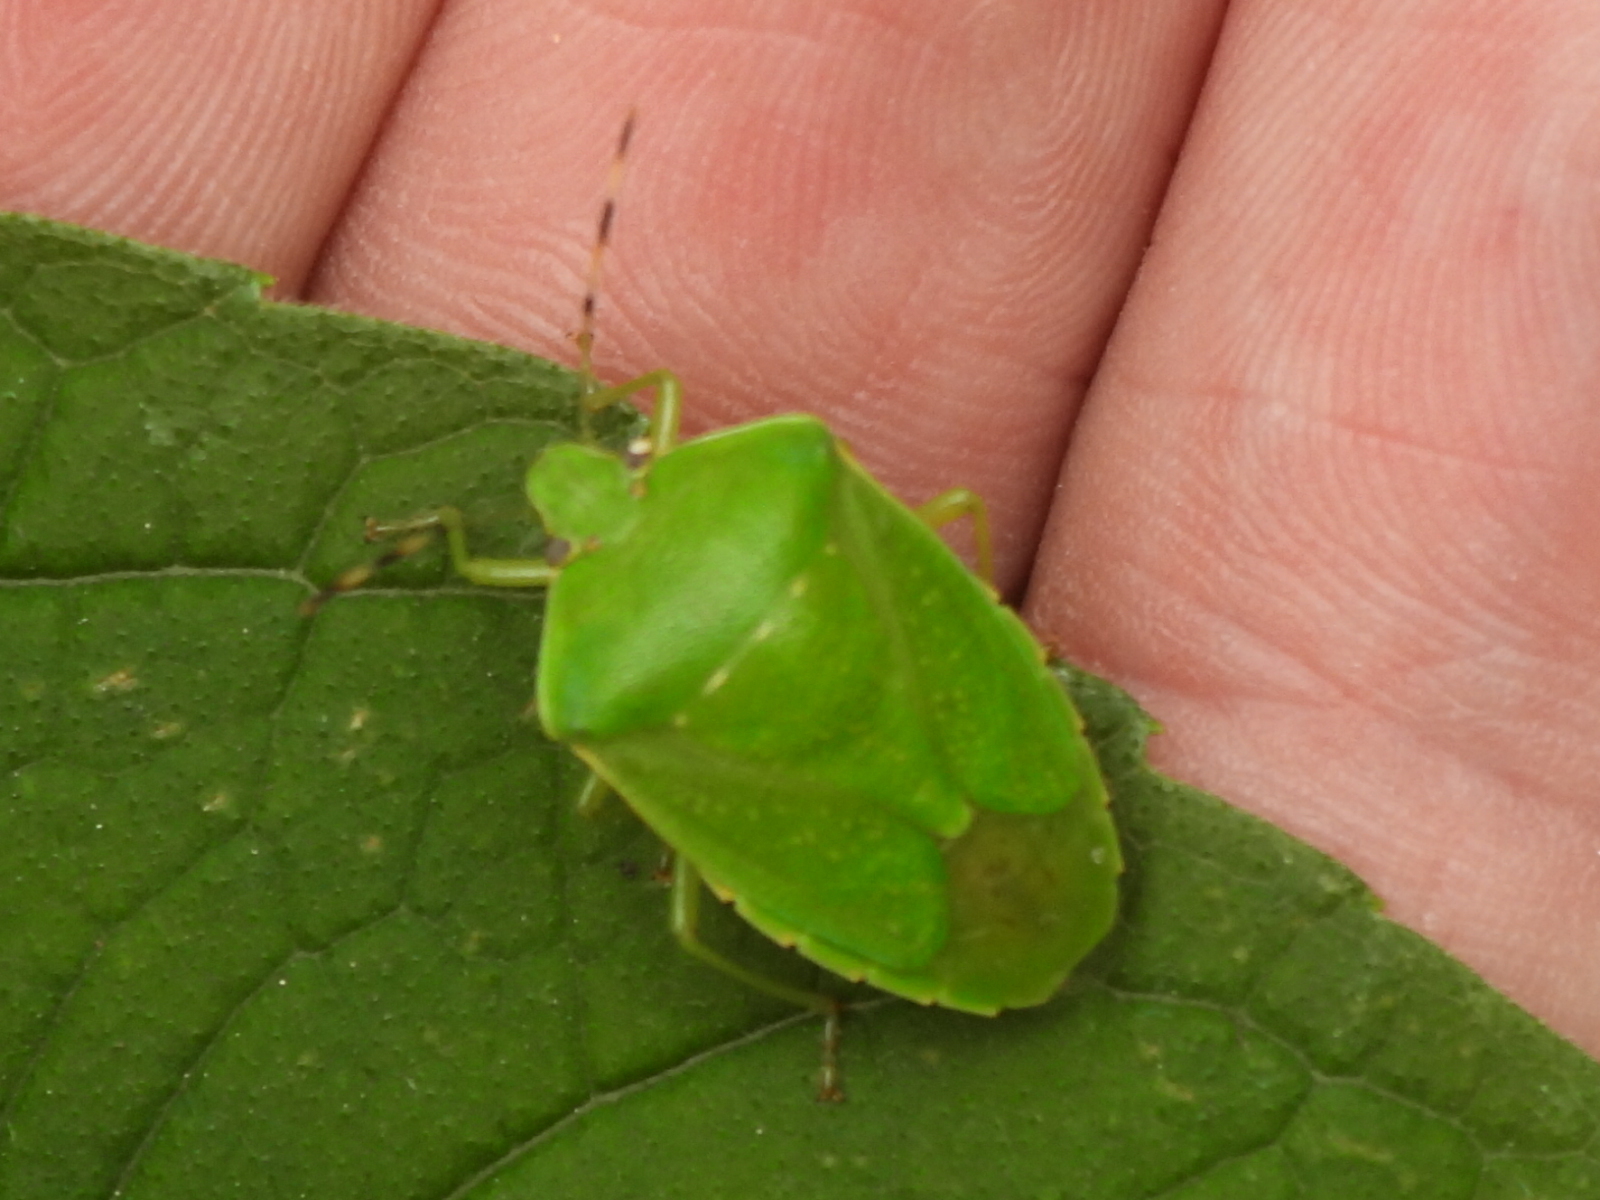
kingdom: Animalia
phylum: Arthropoda
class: Insecta
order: Hemiptera
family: Pentatomidae
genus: Chinavia
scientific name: Chinavia hilaris
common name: Green stink bug
